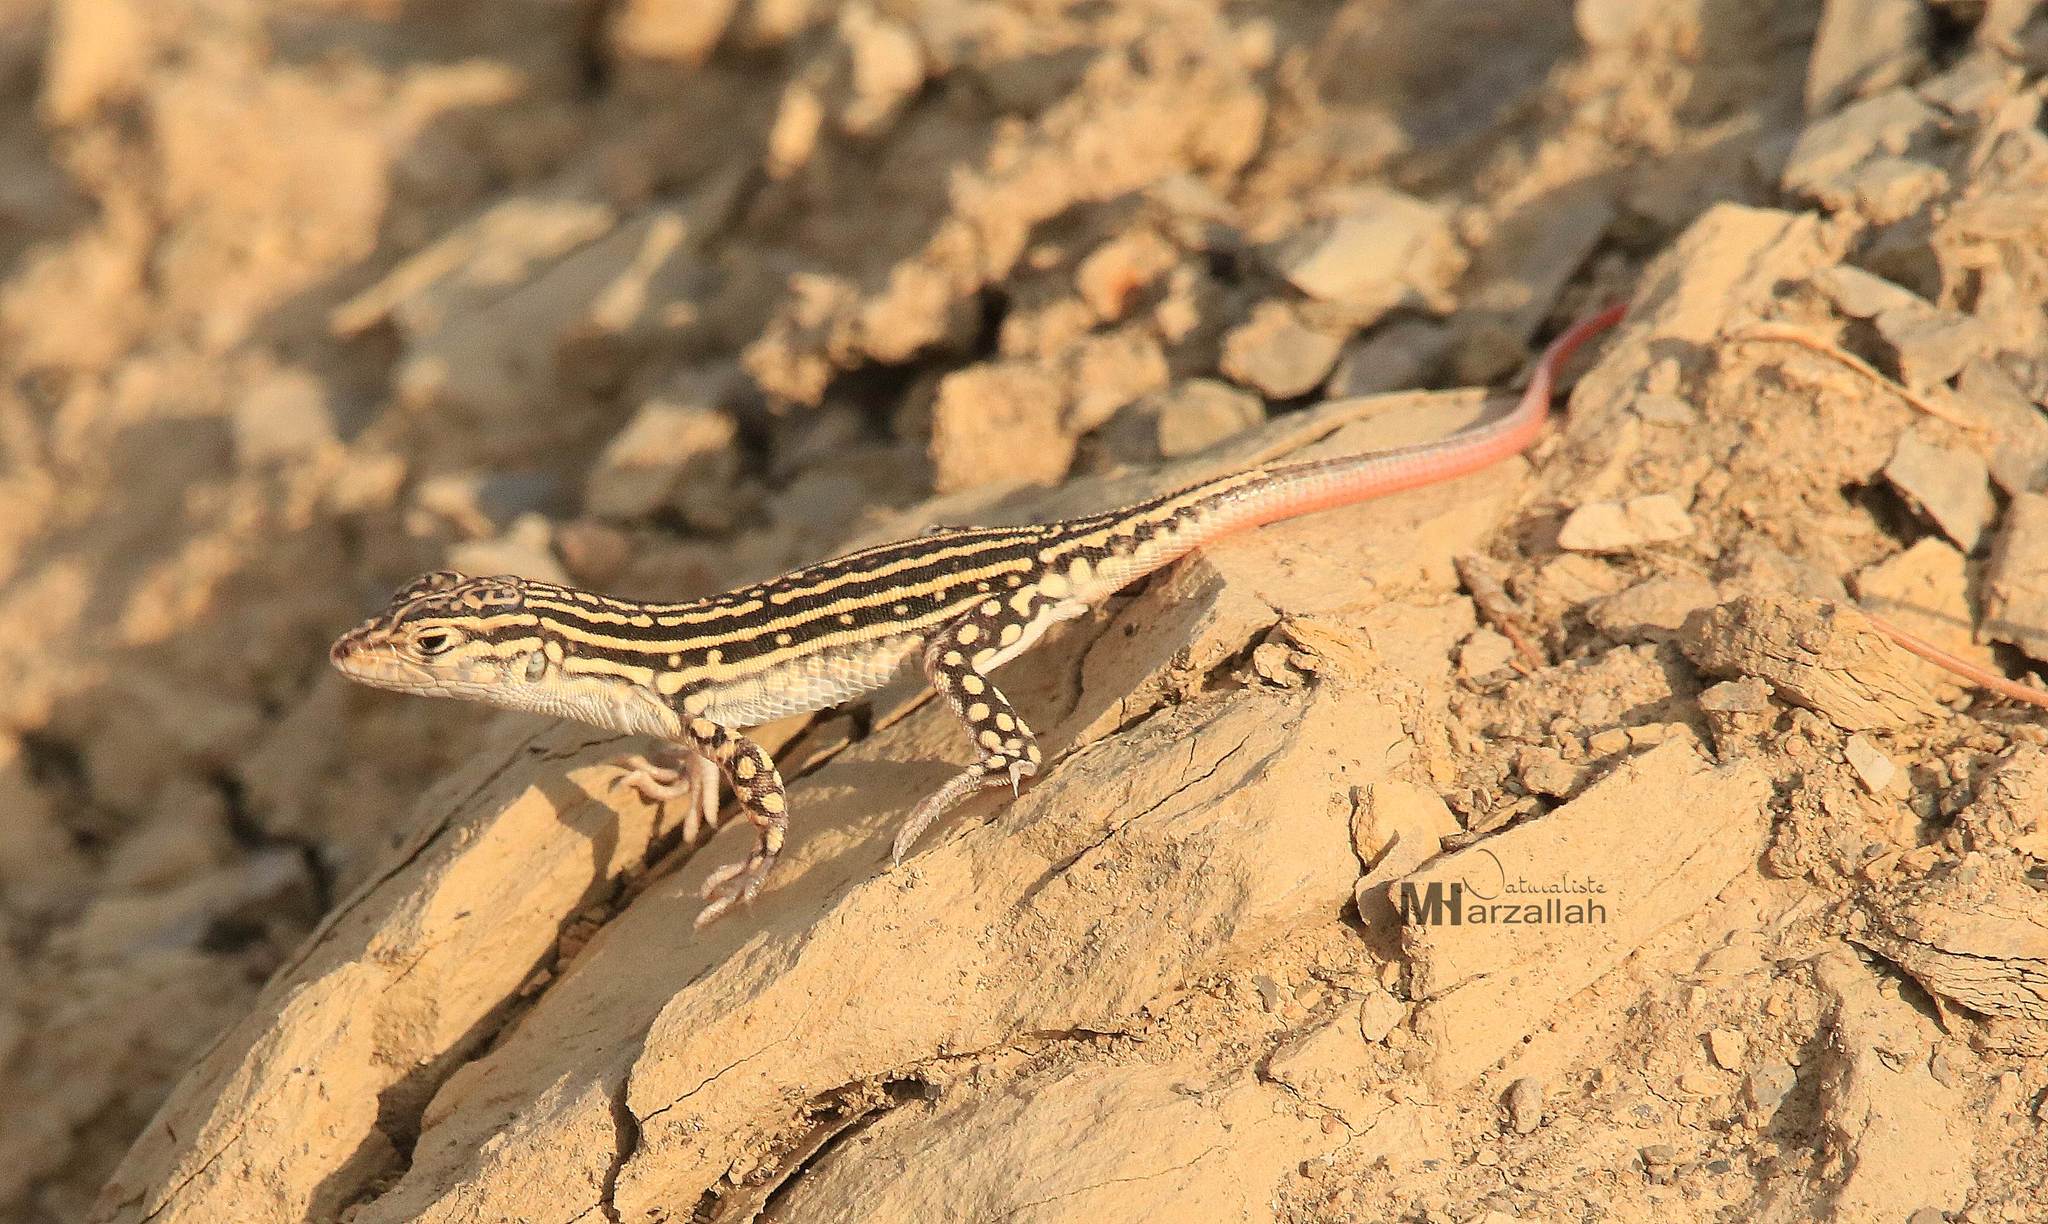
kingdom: Animalia
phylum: Chordata
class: Squamata
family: Lacertidae
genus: Acanthodactylus
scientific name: Acanthodactylus erythrurus
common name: Spiny-footed lizard
